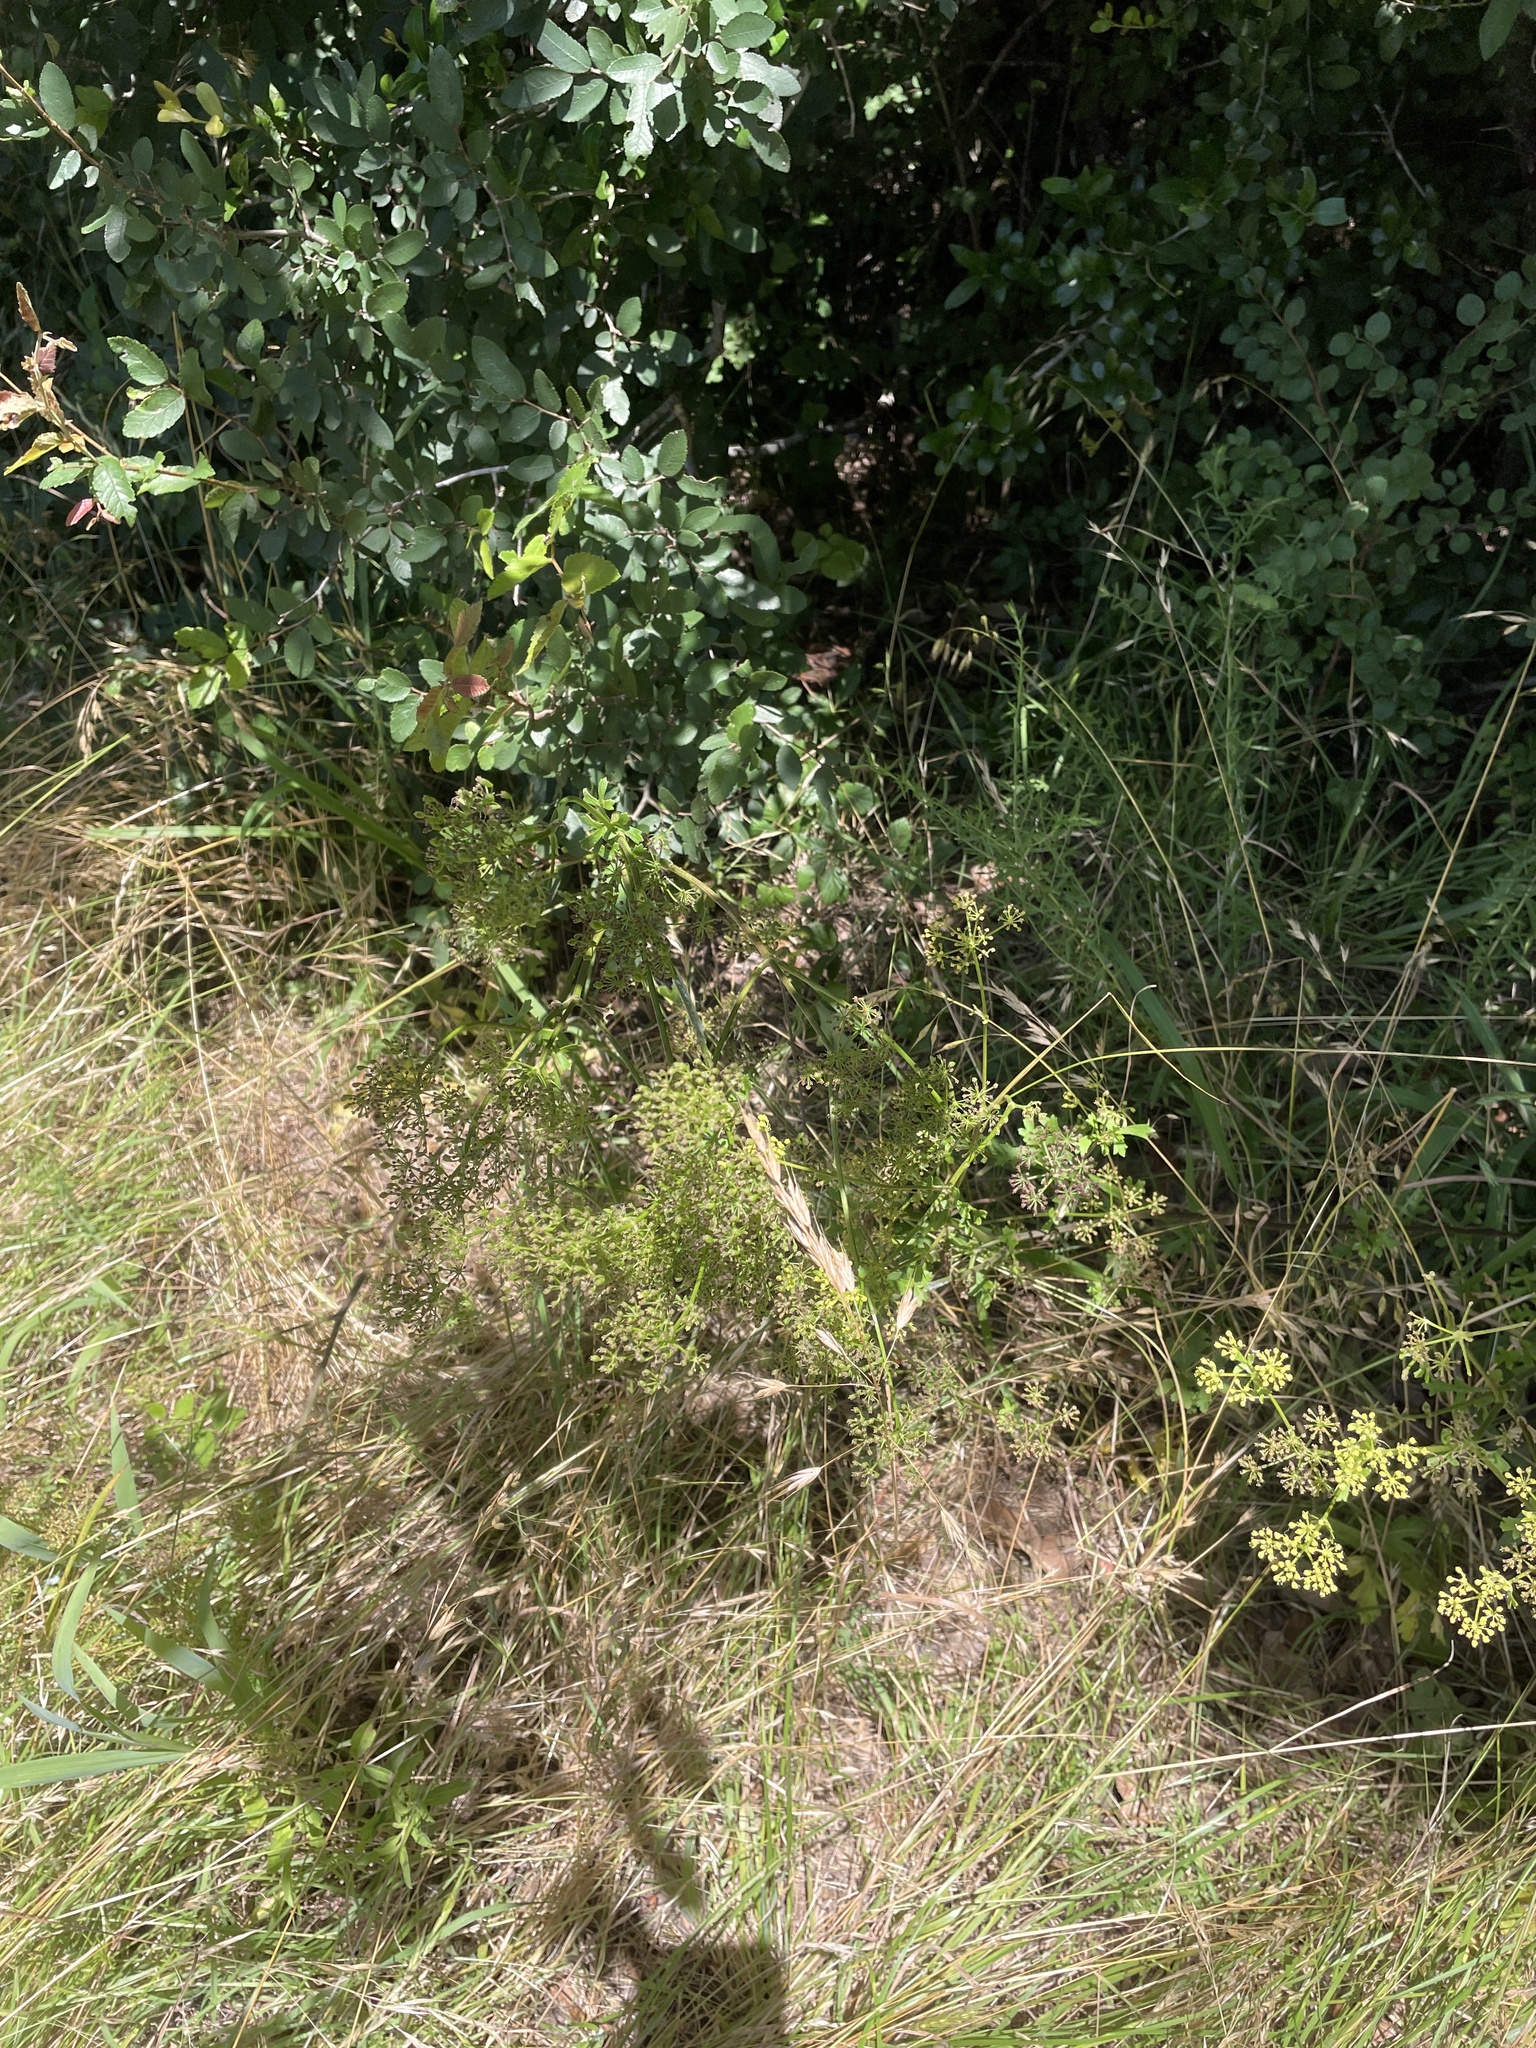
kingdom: Plantae
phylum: Tracheophyta
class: Magnoliopsida
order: Apiales
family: Apiaceae
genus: Polytaenia
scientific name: Polytaenia texana
